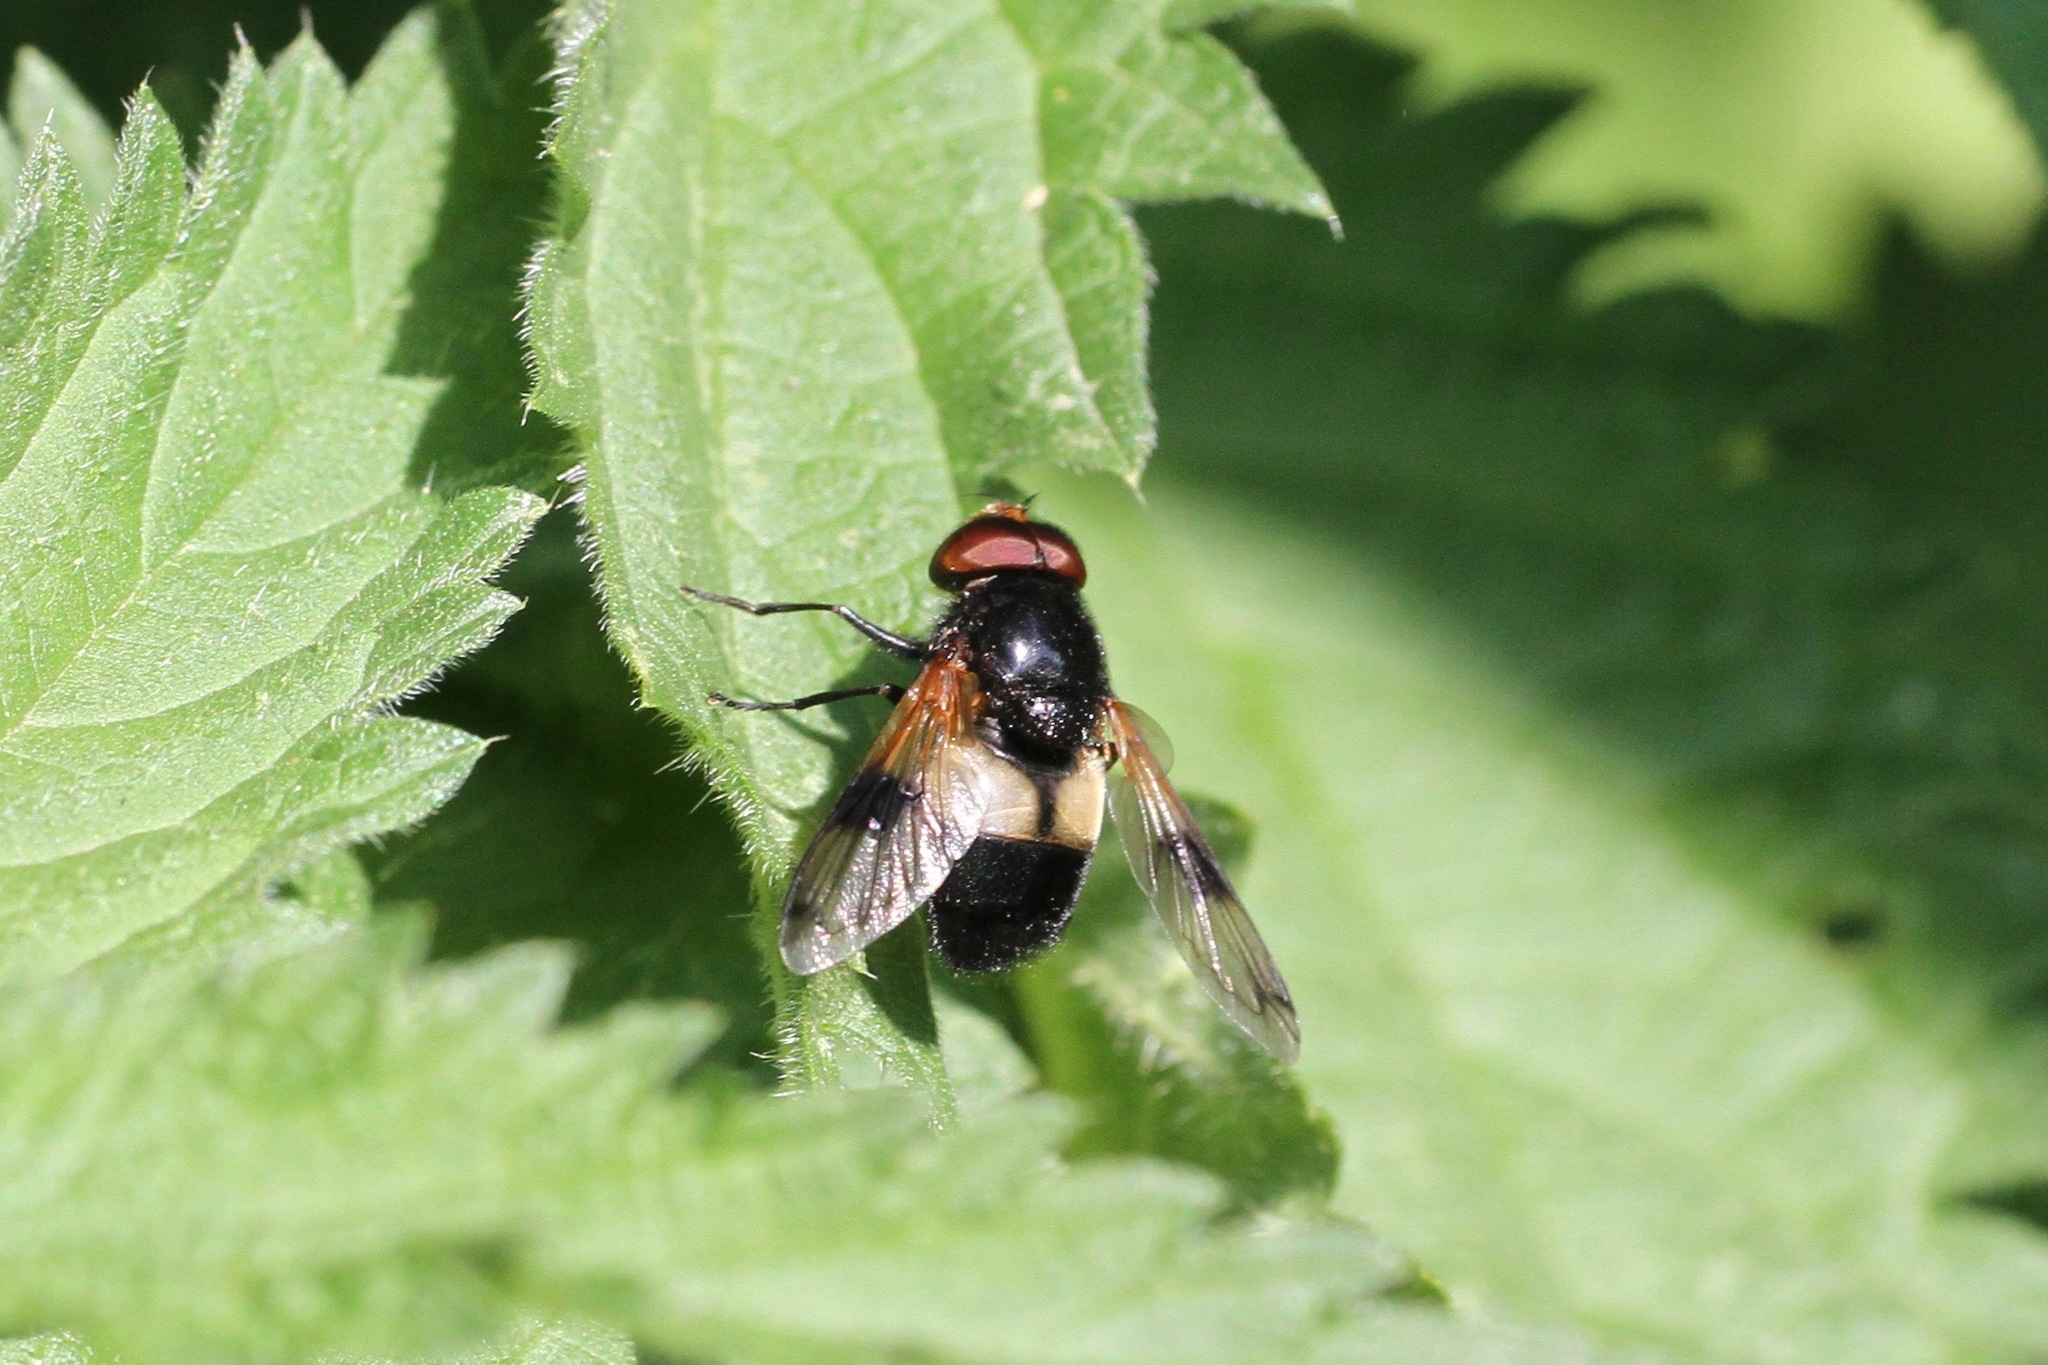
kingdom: Animalia
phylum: Arthropoda
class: Insecta
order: Diptera
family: Syrphidae
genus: Volucella
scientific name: Volucella pellucens
